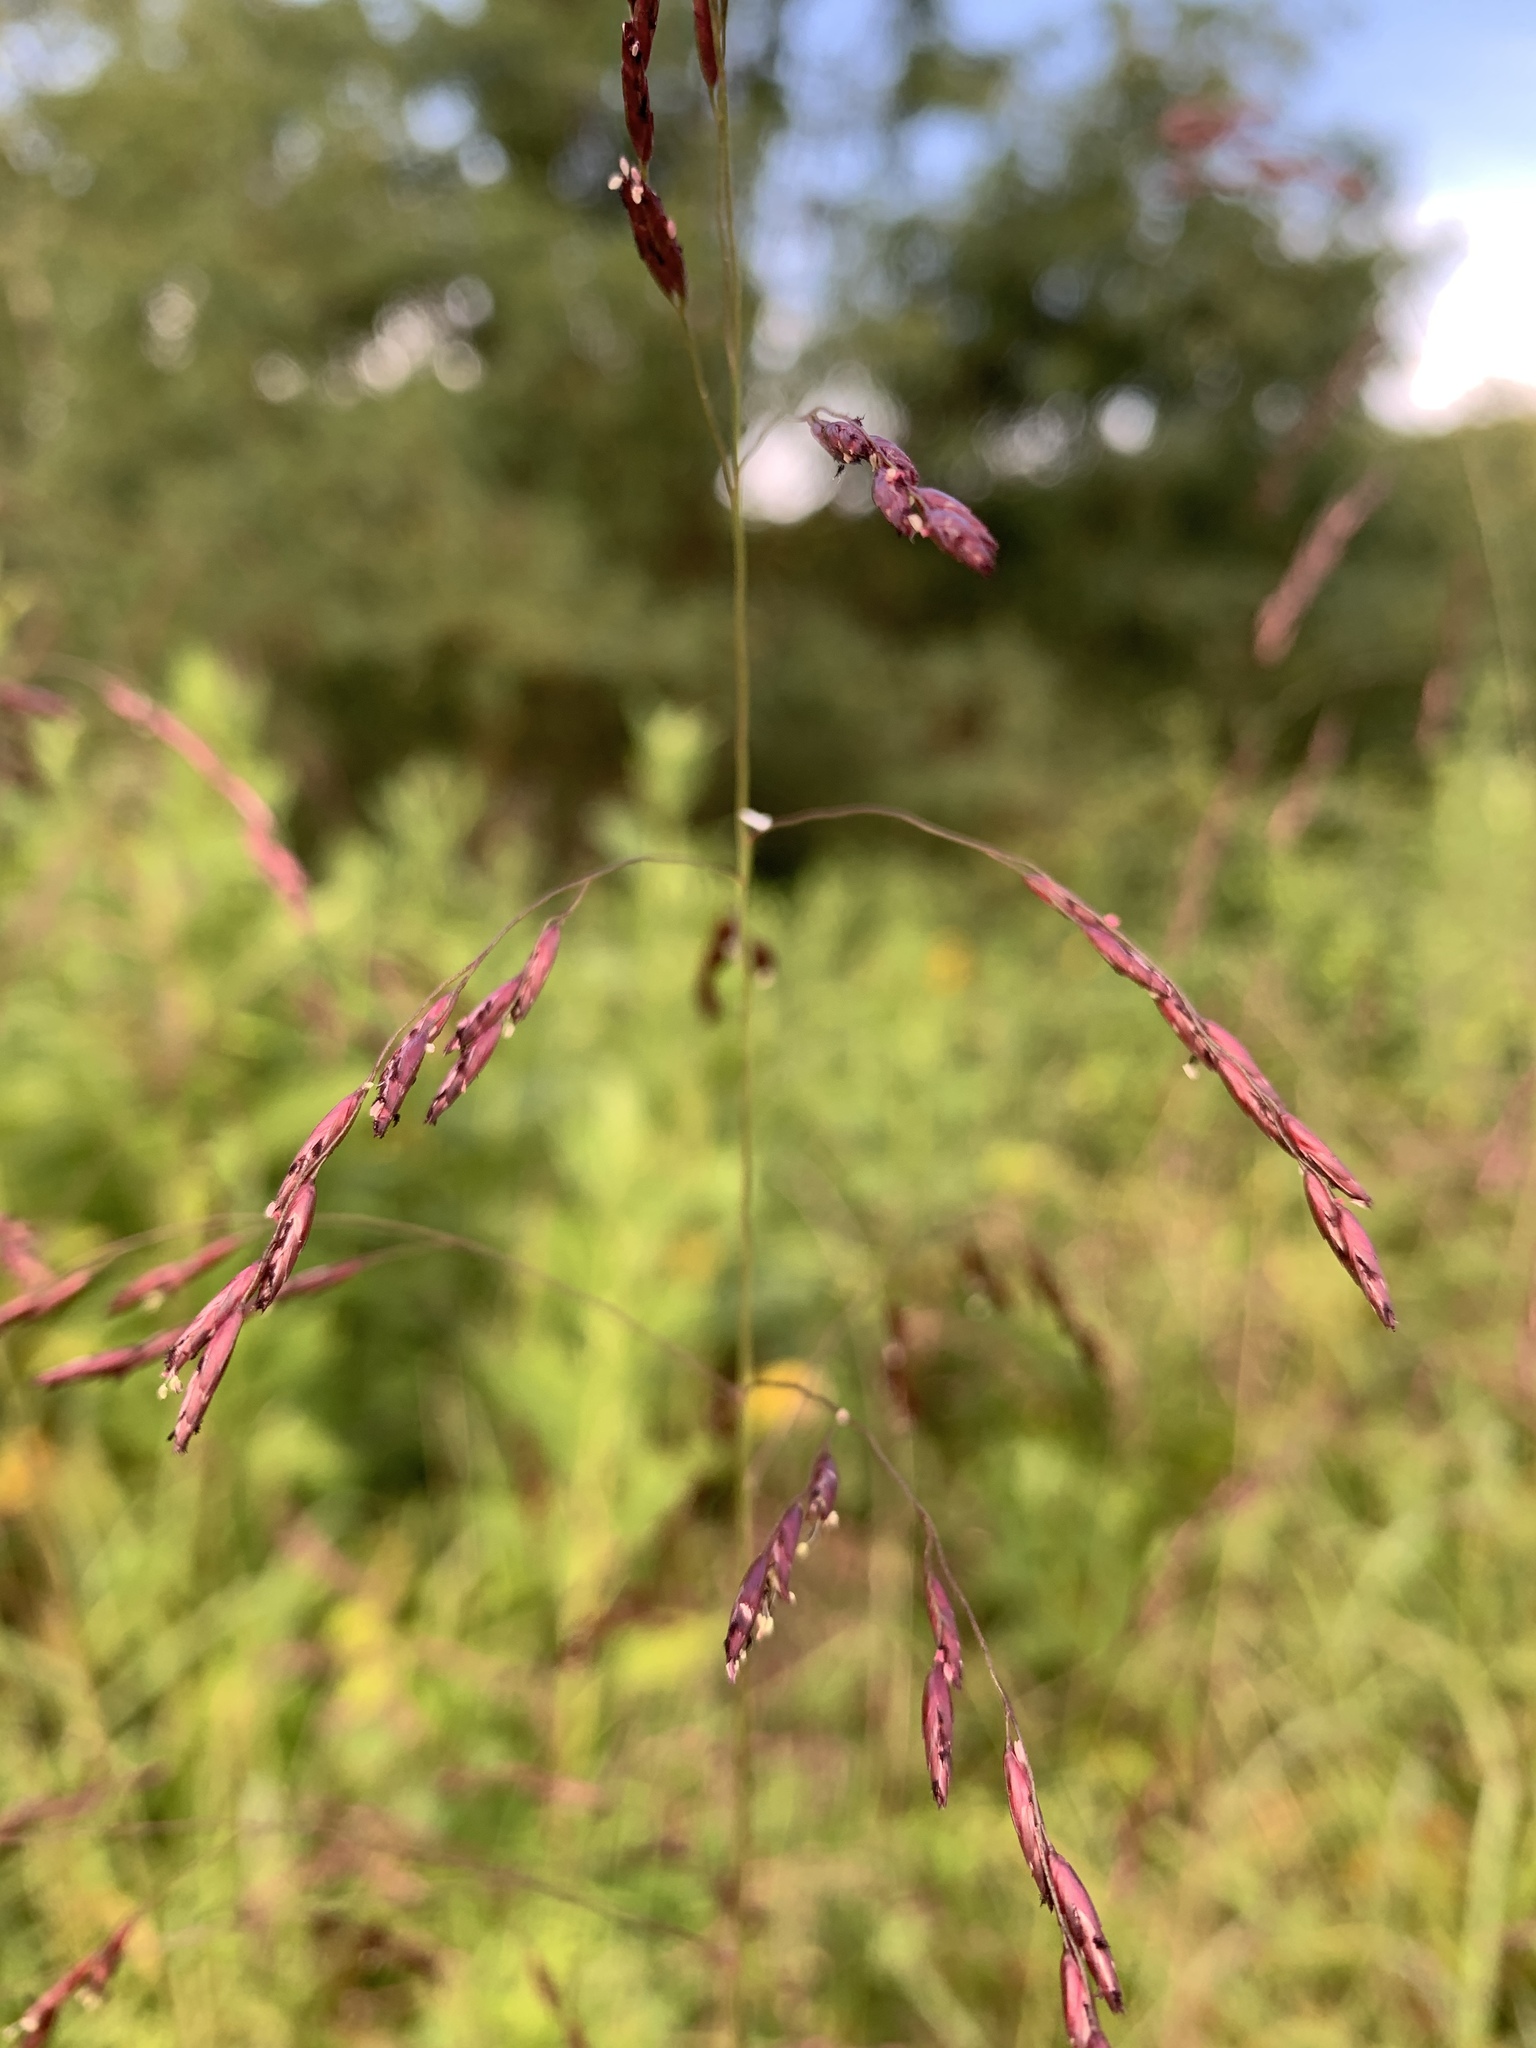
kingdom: Plantae
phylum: Tracheophyta
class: Liliopsida
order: Poales
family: Poaceae
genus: Tridens
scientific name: Tridens flavus
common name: Purpletop
